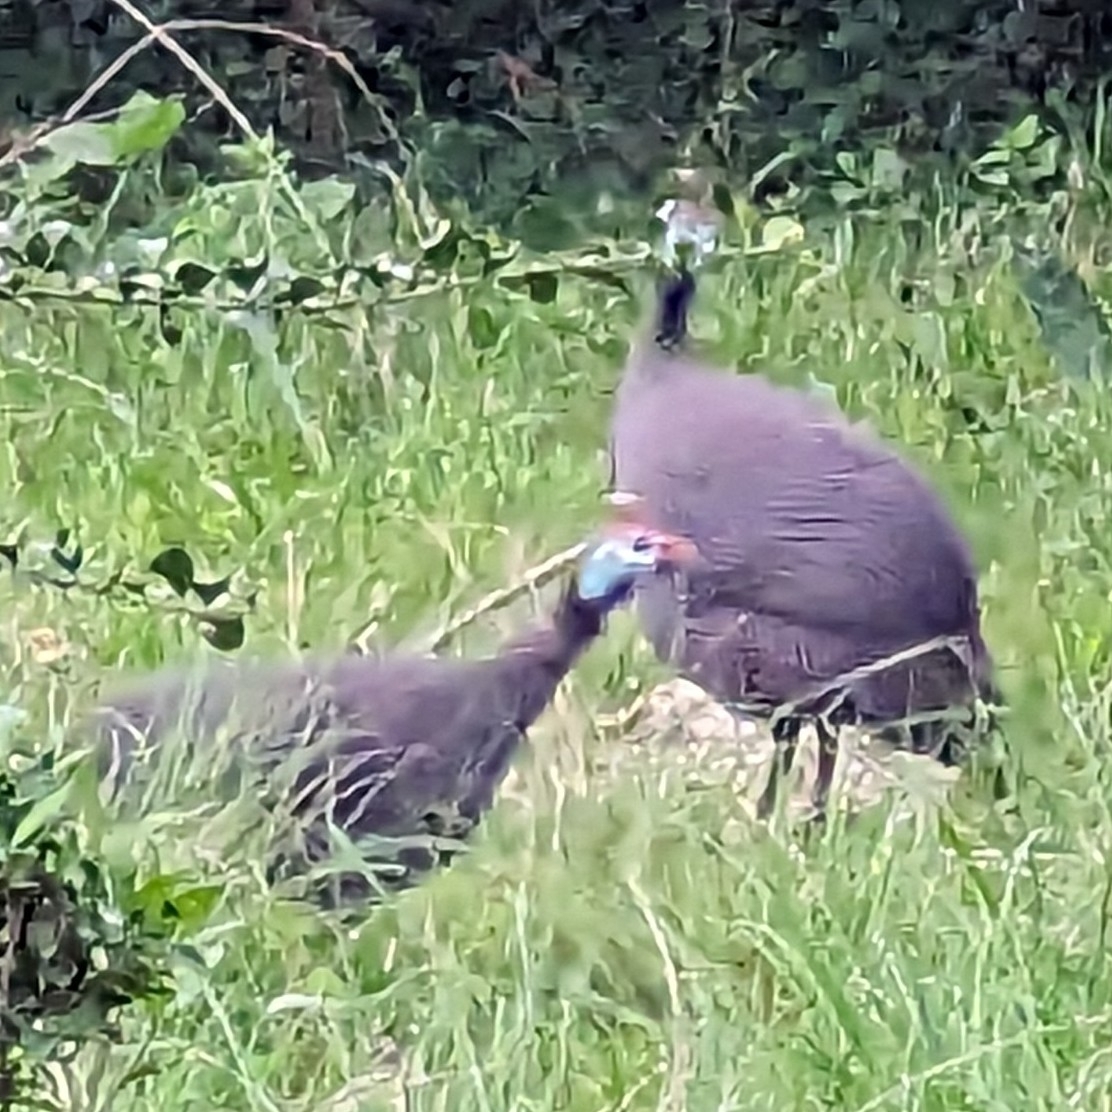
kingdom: Animalia
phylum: Chordata
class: Aves
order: Galliformes
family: Numididae
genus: Numida
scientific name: Numida meleagris
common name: Helmeted guineafowl
